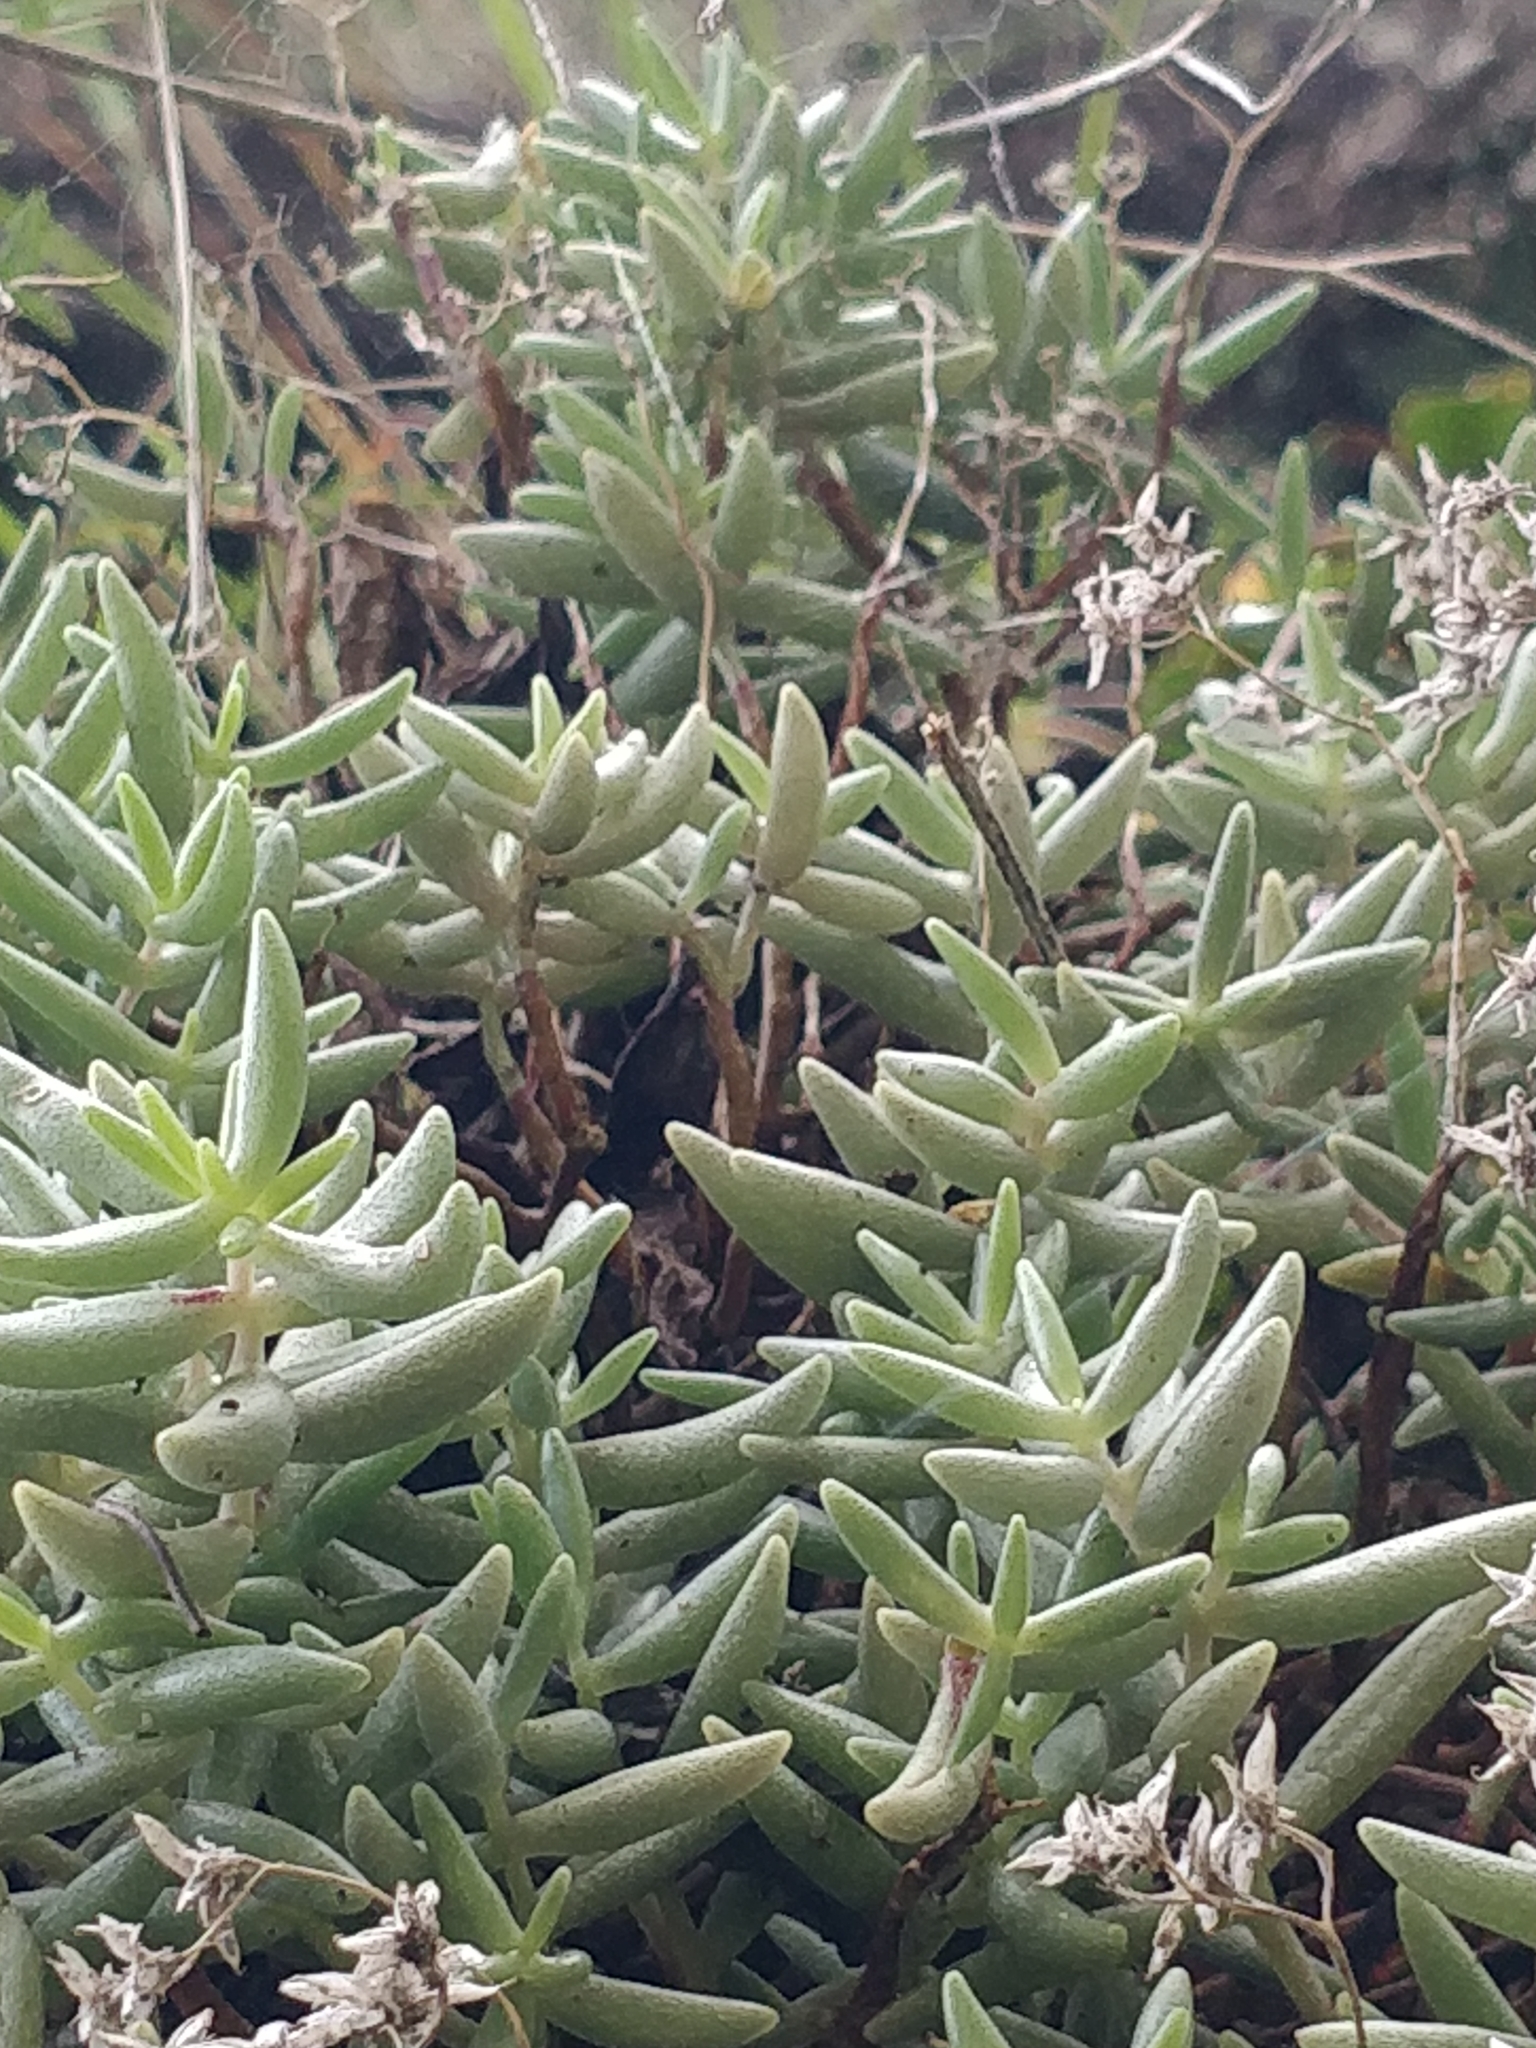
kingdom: Plantae
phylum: Tracheophyta
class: Magnoliopsida
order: Saxifragales
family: Crassulaceae
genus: Sedum
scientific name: Sedum fusiforme
